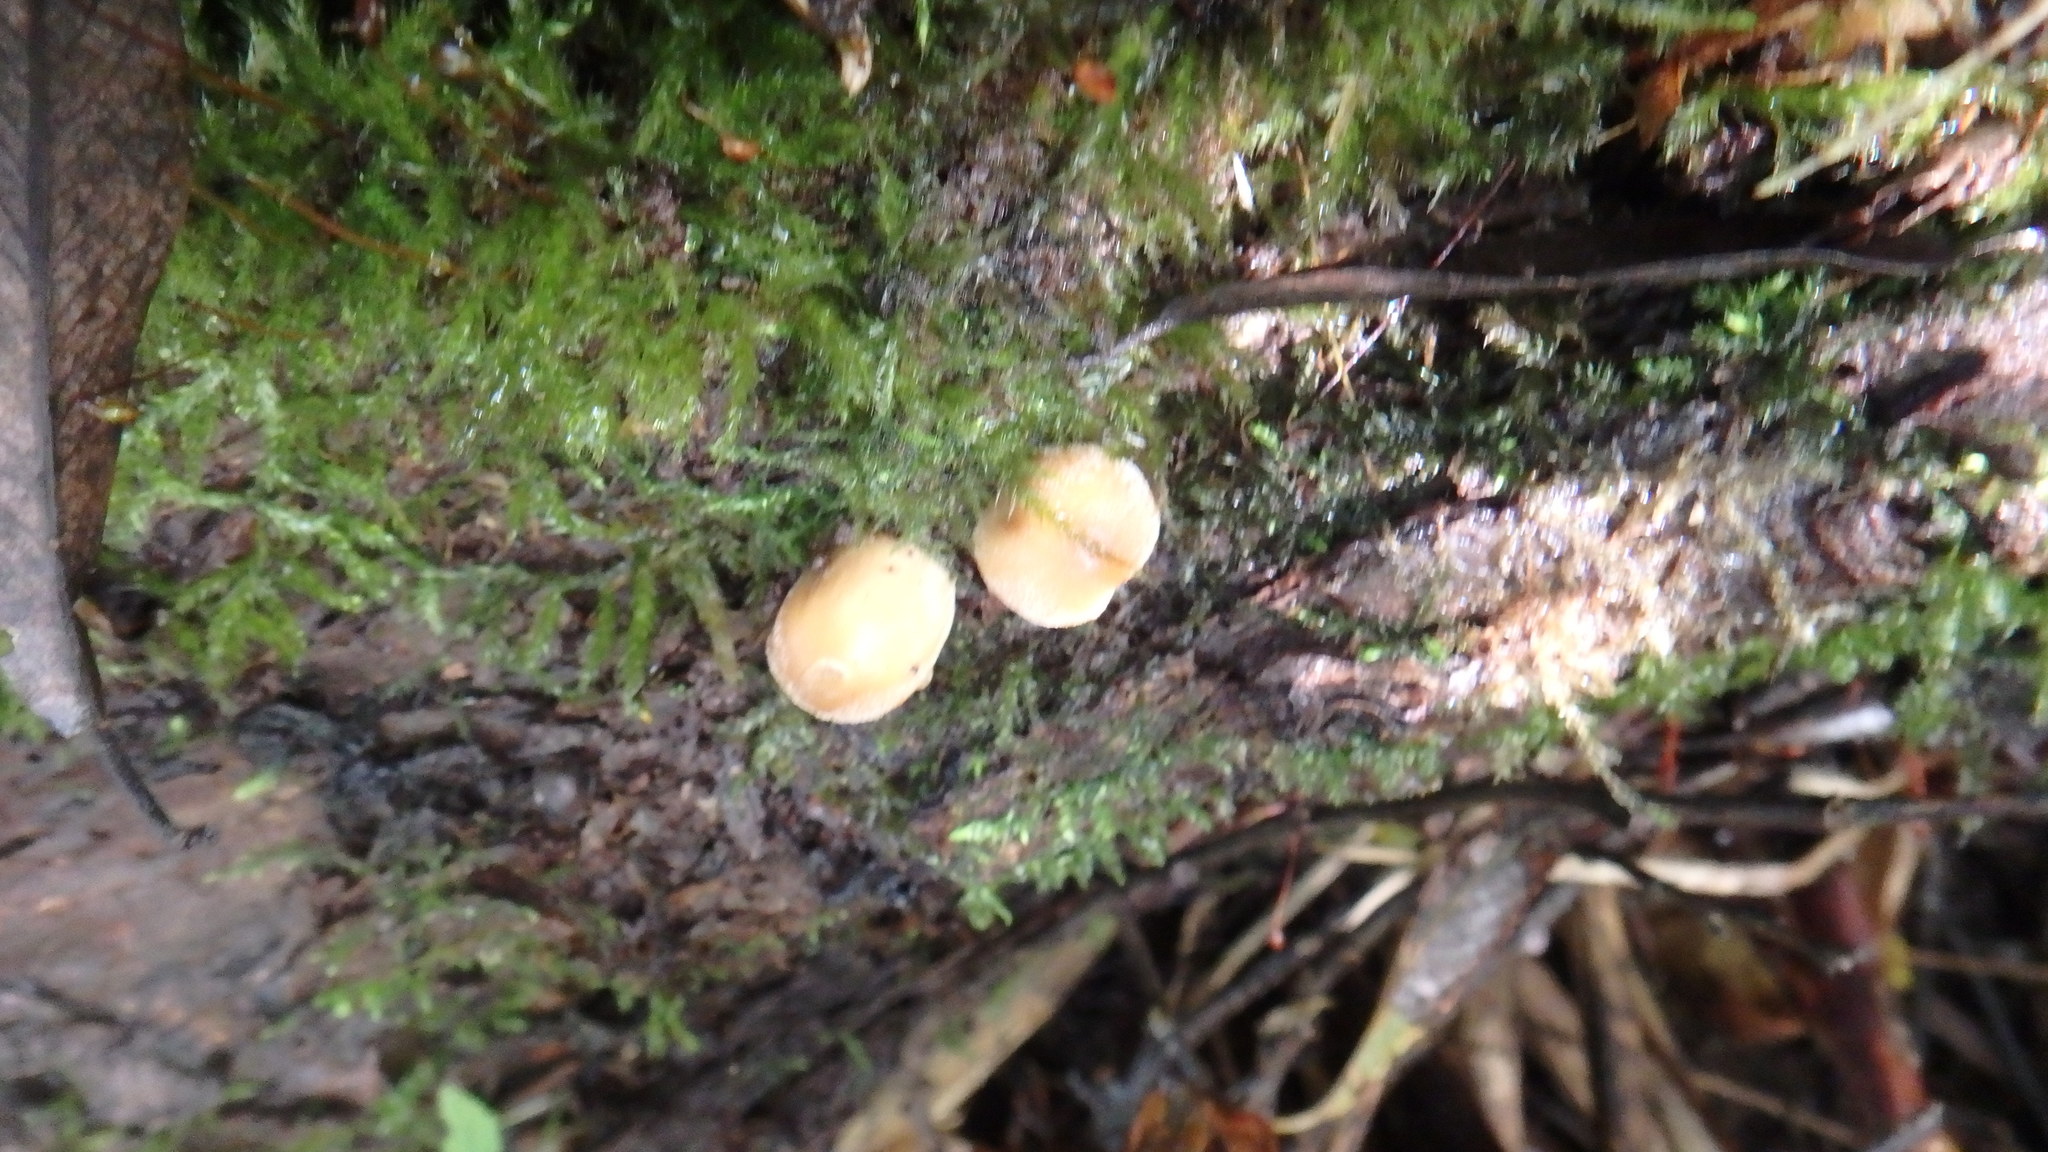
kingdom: Fungi
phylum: Basidiomycota
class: Agaricomycetes
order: Agaricales
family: Psathyrellaceae
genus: Coprinellus
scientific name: Coprinellus micaceus
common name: Glistening ink-cap
